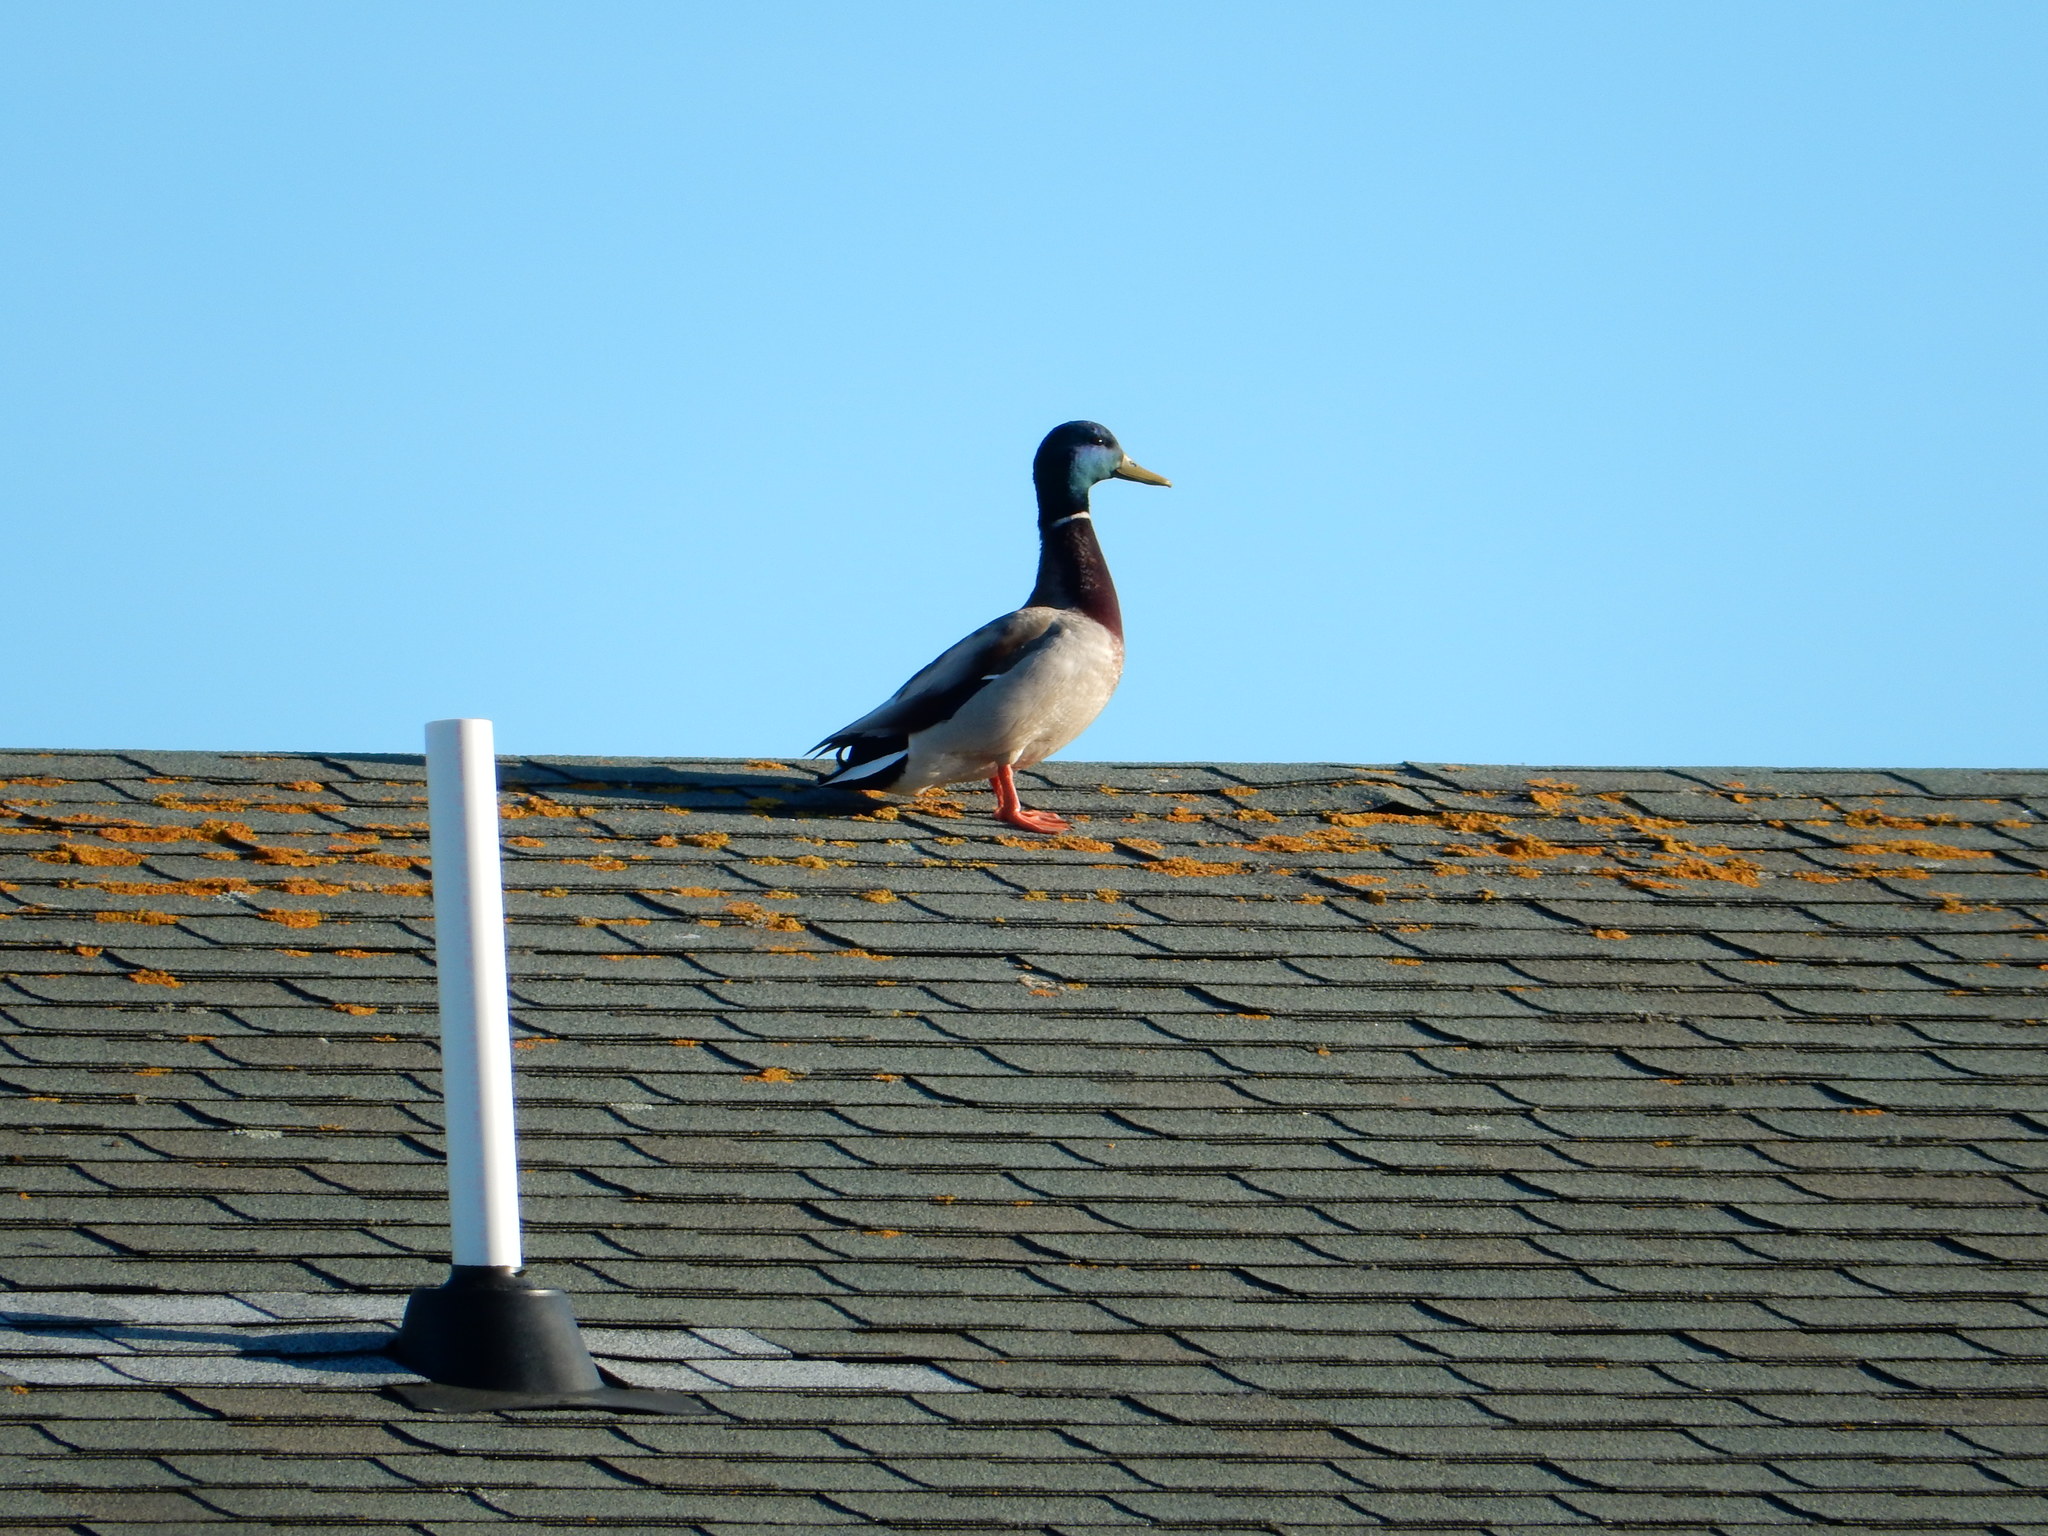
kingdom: Animalia
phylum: Chordata
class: Aves
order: Anseriformes
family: Anatidae
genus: Anas
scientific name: Anas platyrhynchos
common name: Mallard
